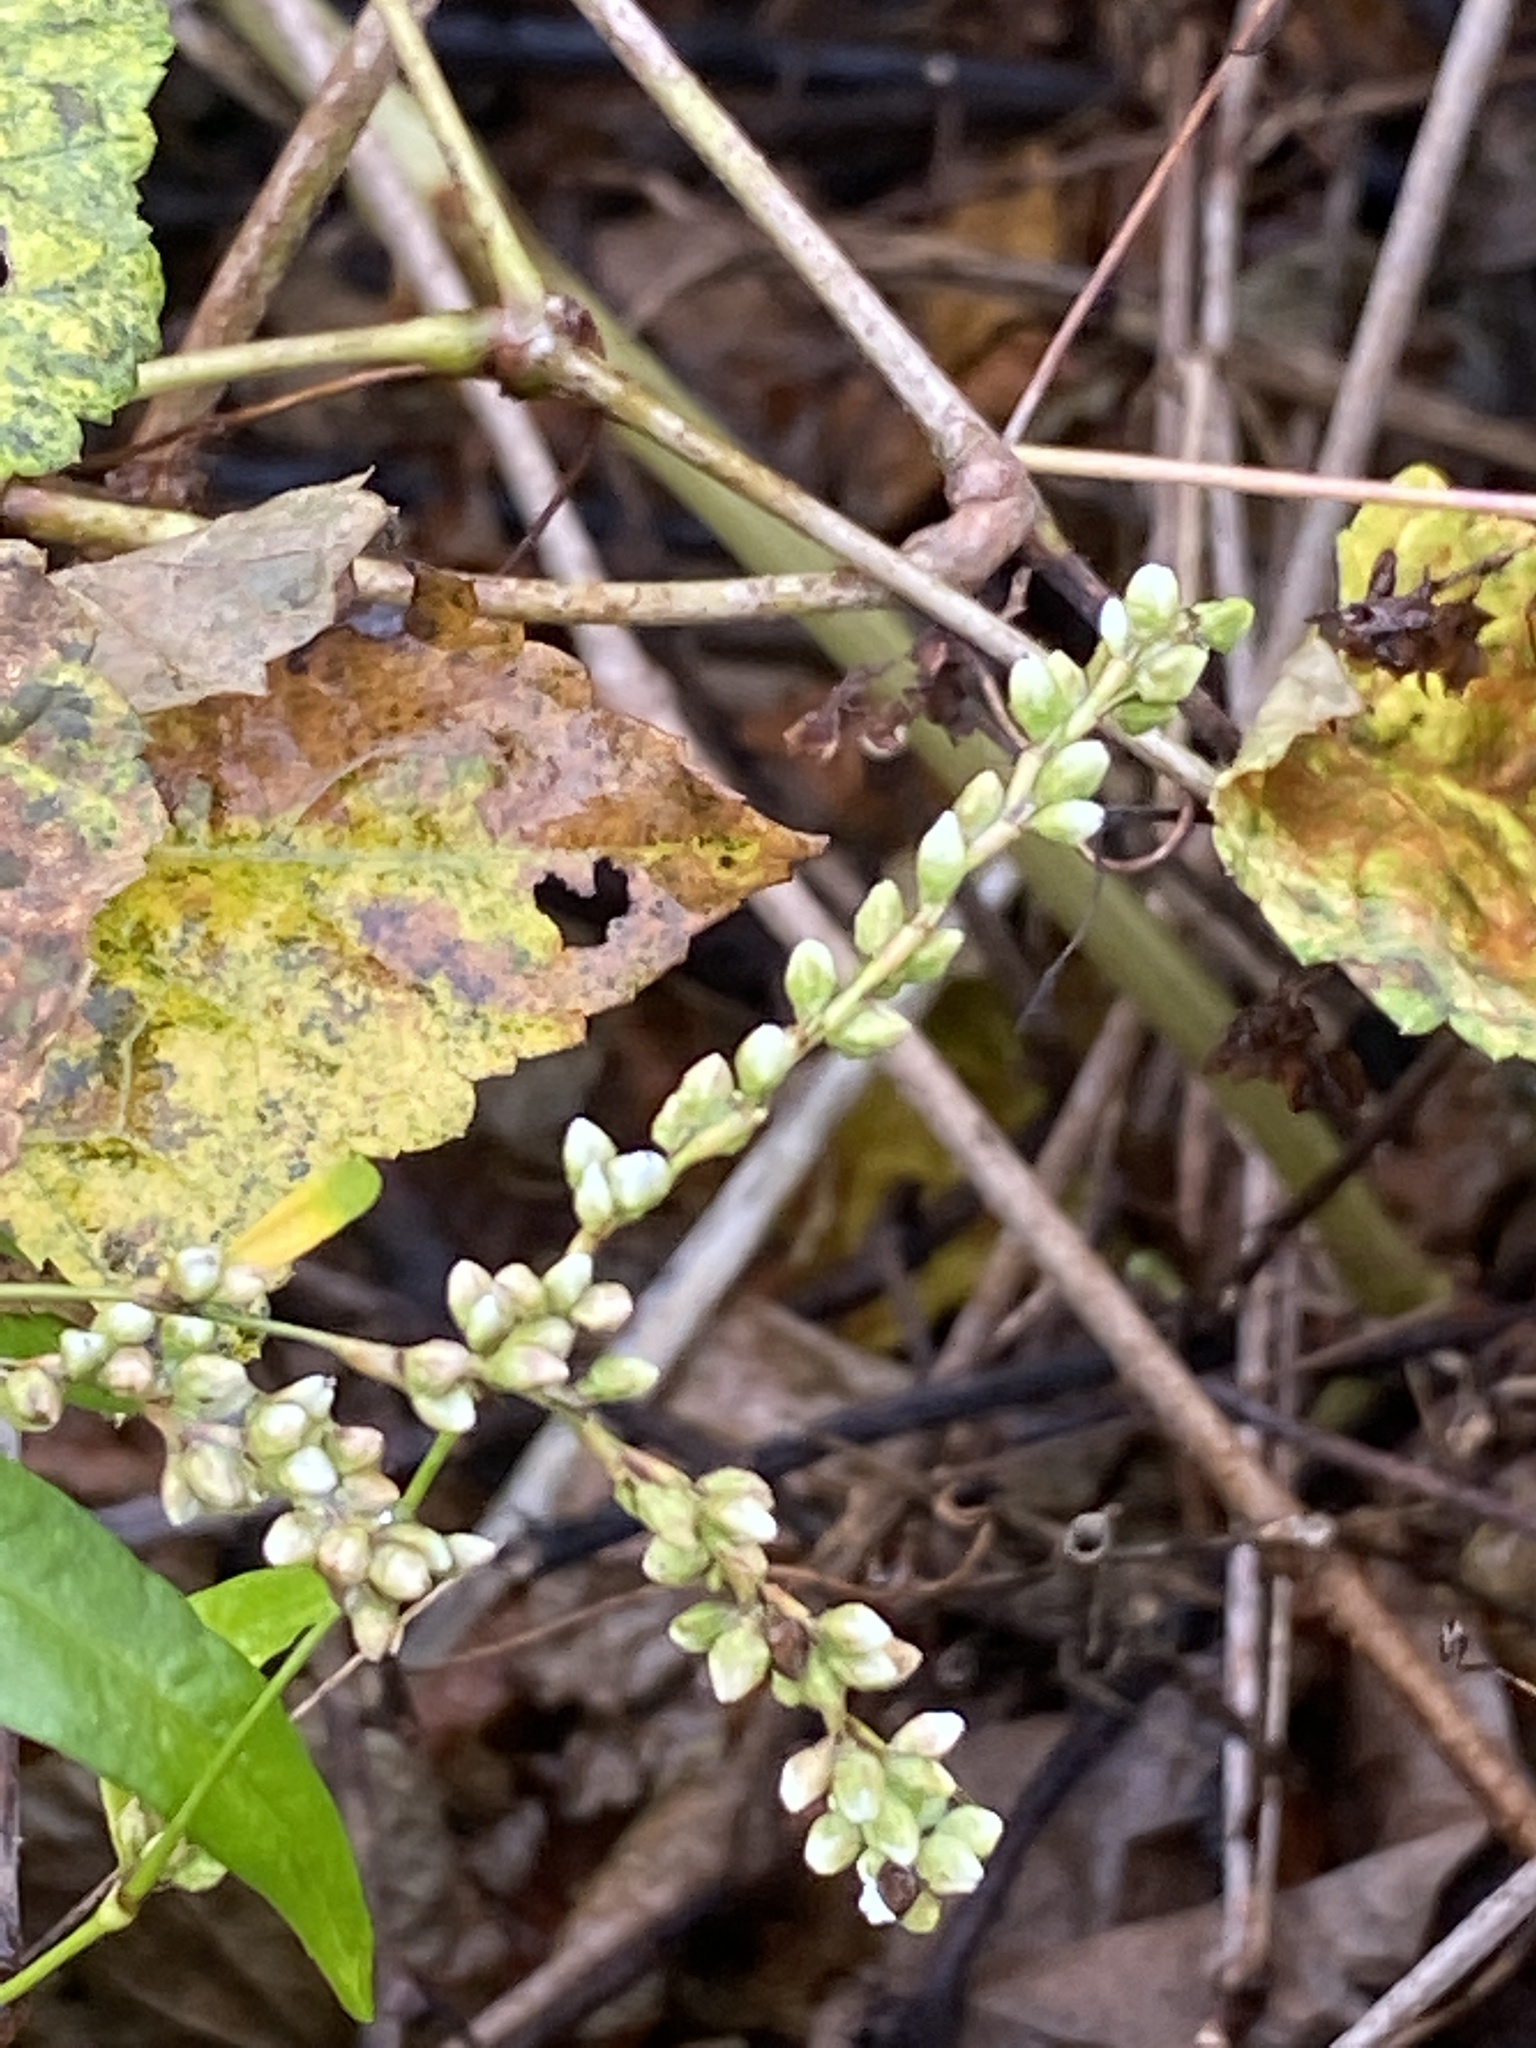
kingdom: Plantae
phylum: Tracheophyta
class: Magnoliopsida
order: Caryophyllales
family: Polygonaceae
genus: Persicaria
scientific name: Persicaria punctata
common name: Dotted smartweed
